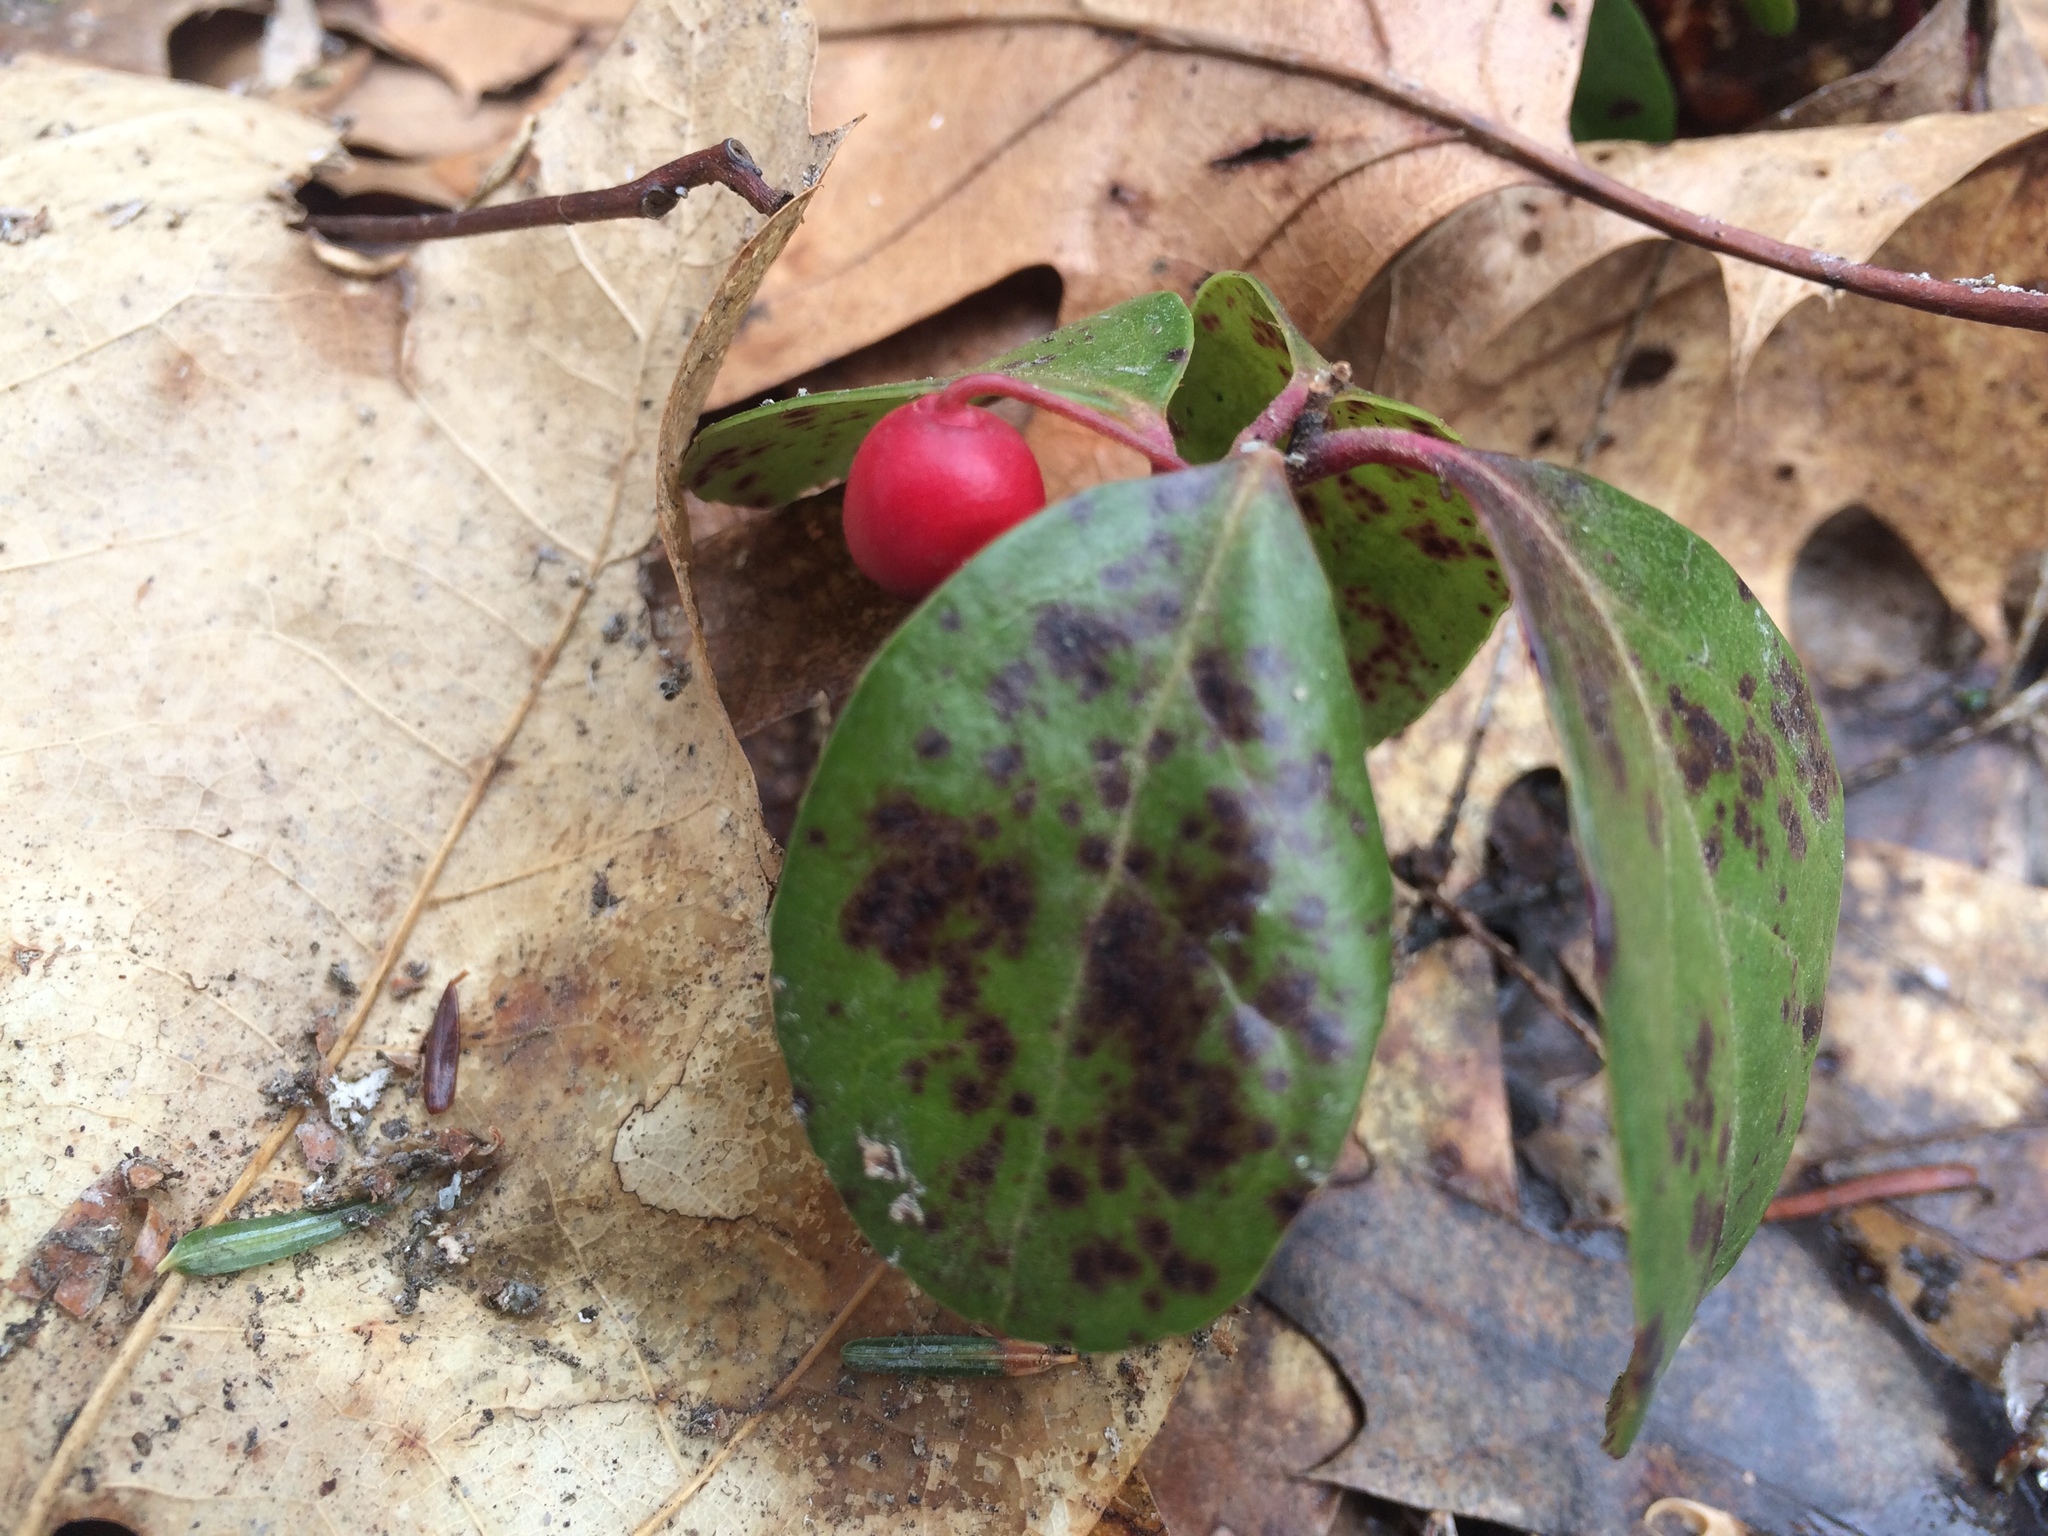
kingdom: Plantae
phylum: Tracheophyta
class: Magnoliopsida
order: Ericales
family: Ericaceae
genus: Gaultheria
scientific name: Gaultheria procumbens
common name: Checkerberry
